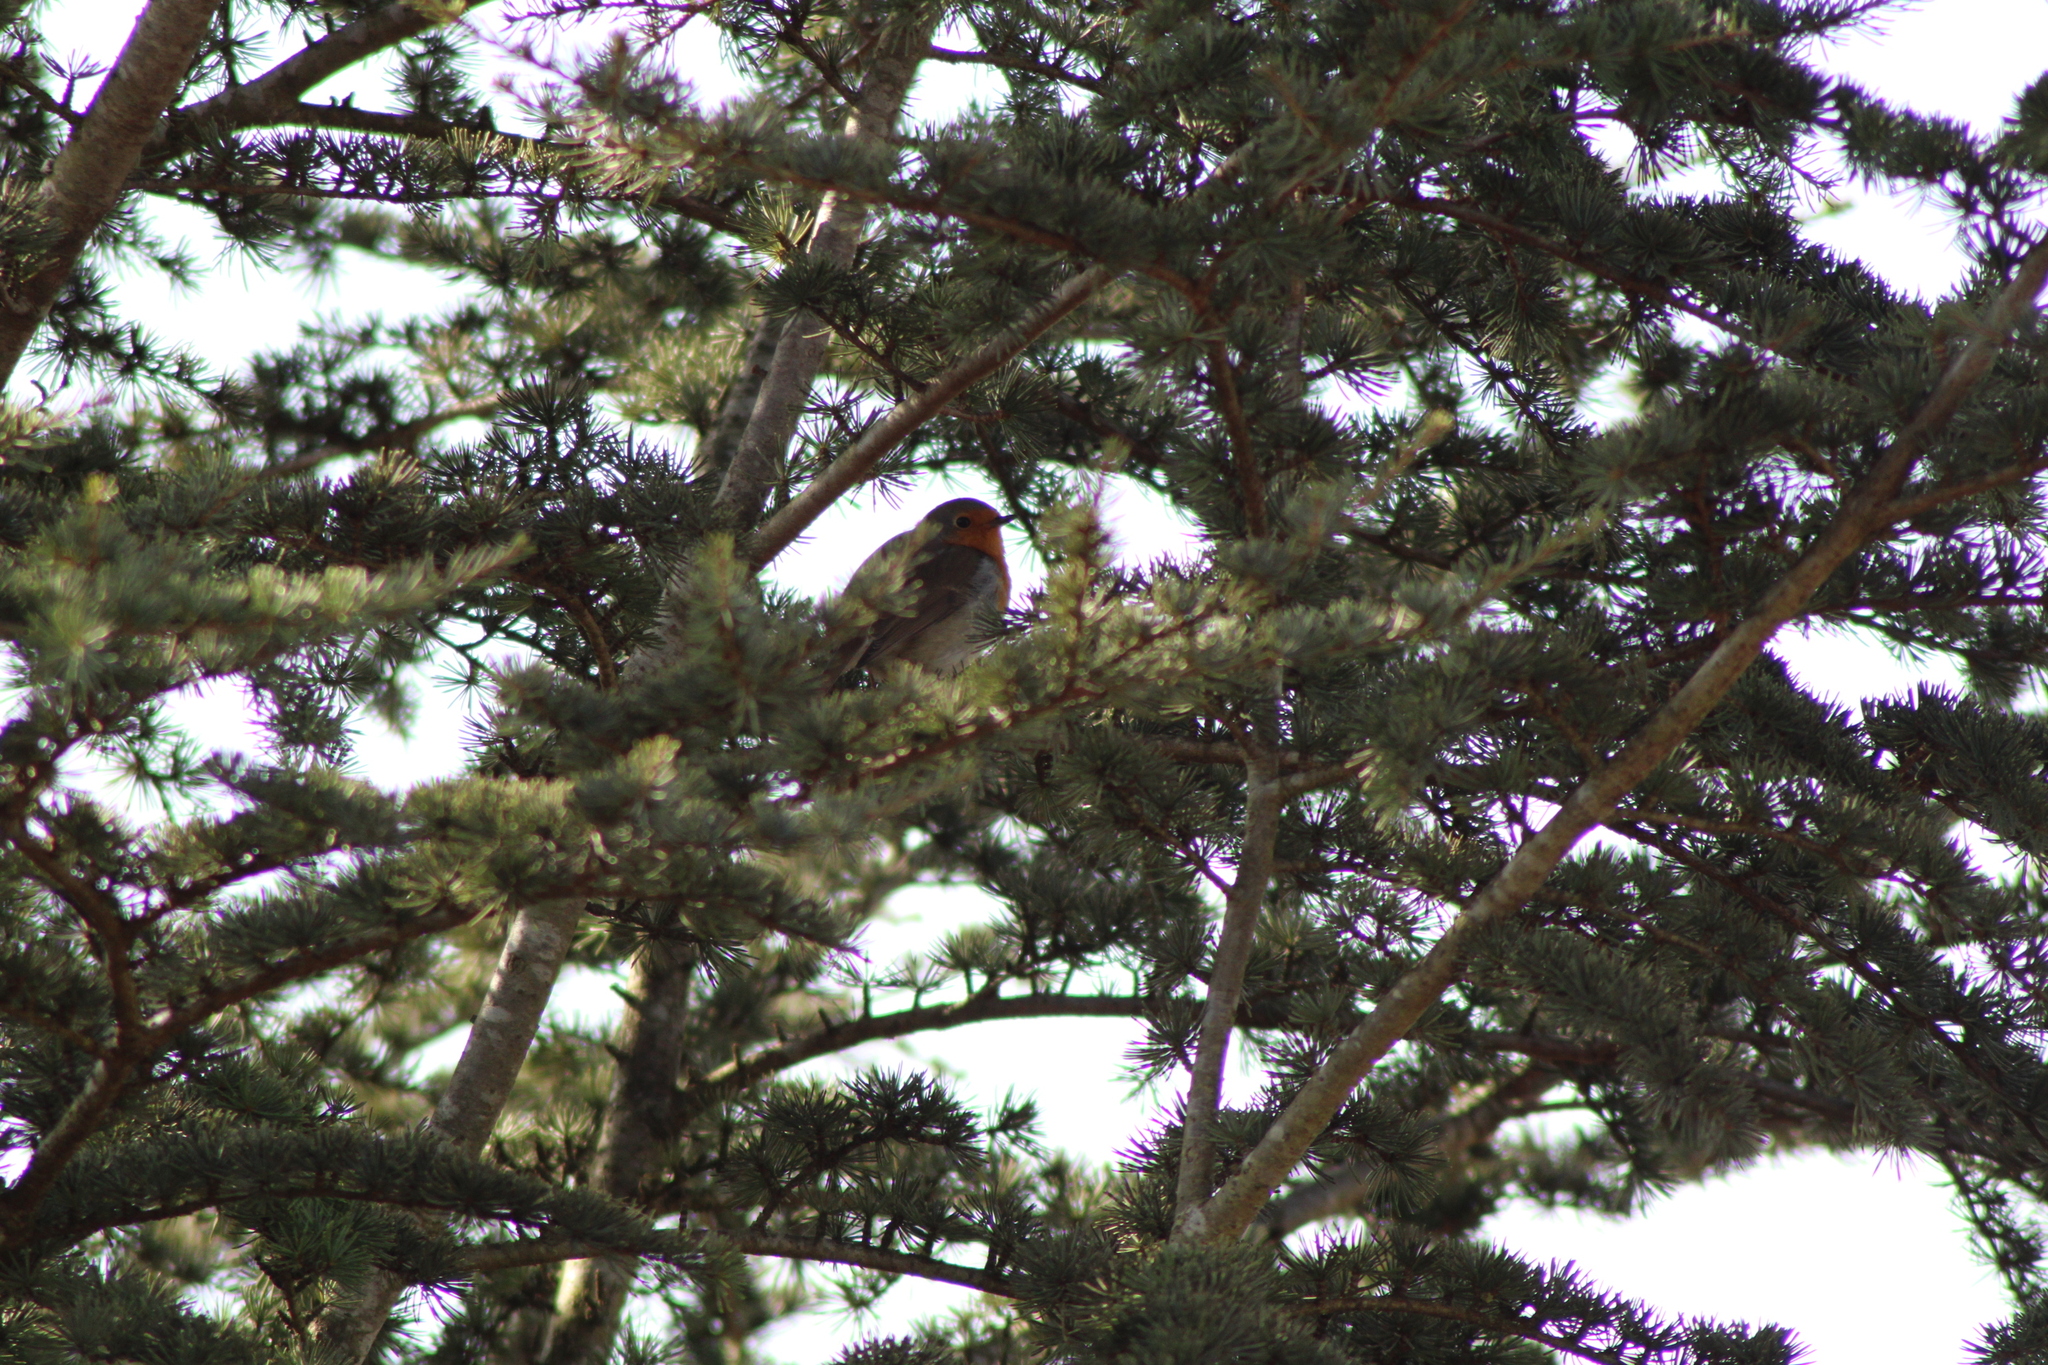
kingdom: Animalia
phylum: Chordata
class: Aves
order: Passeriformes
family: Muscicapidae
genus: Erithacus
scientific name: Erithacus rubecula
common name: European robin
